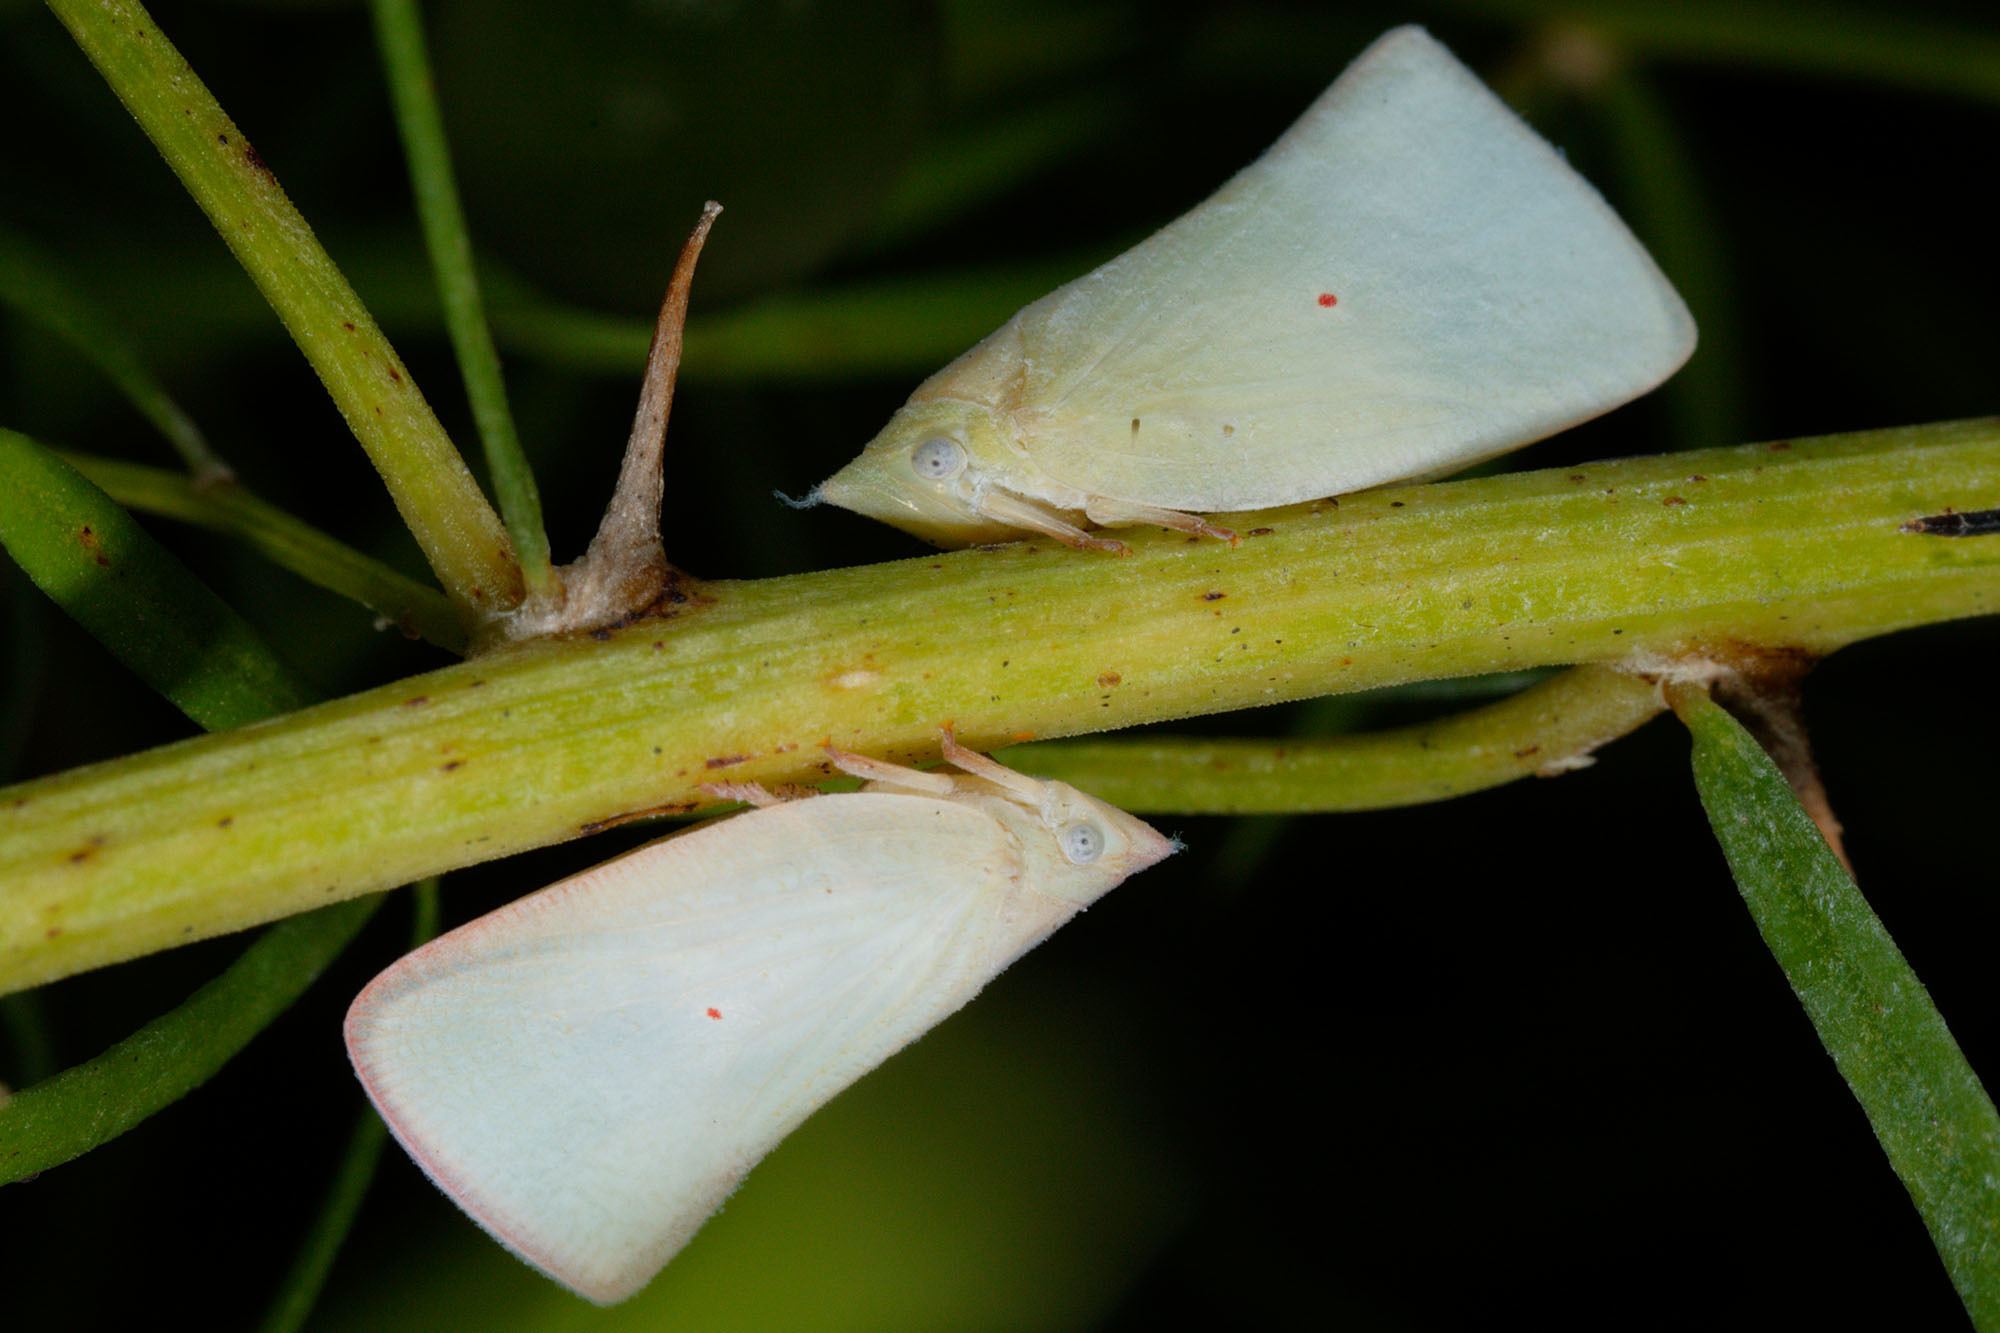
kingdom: Animalia
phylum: Arthropoda
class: Insecta
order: Hemiptera
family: Flatidae
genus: Colgaroides
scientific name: Colgaroides acuminata
